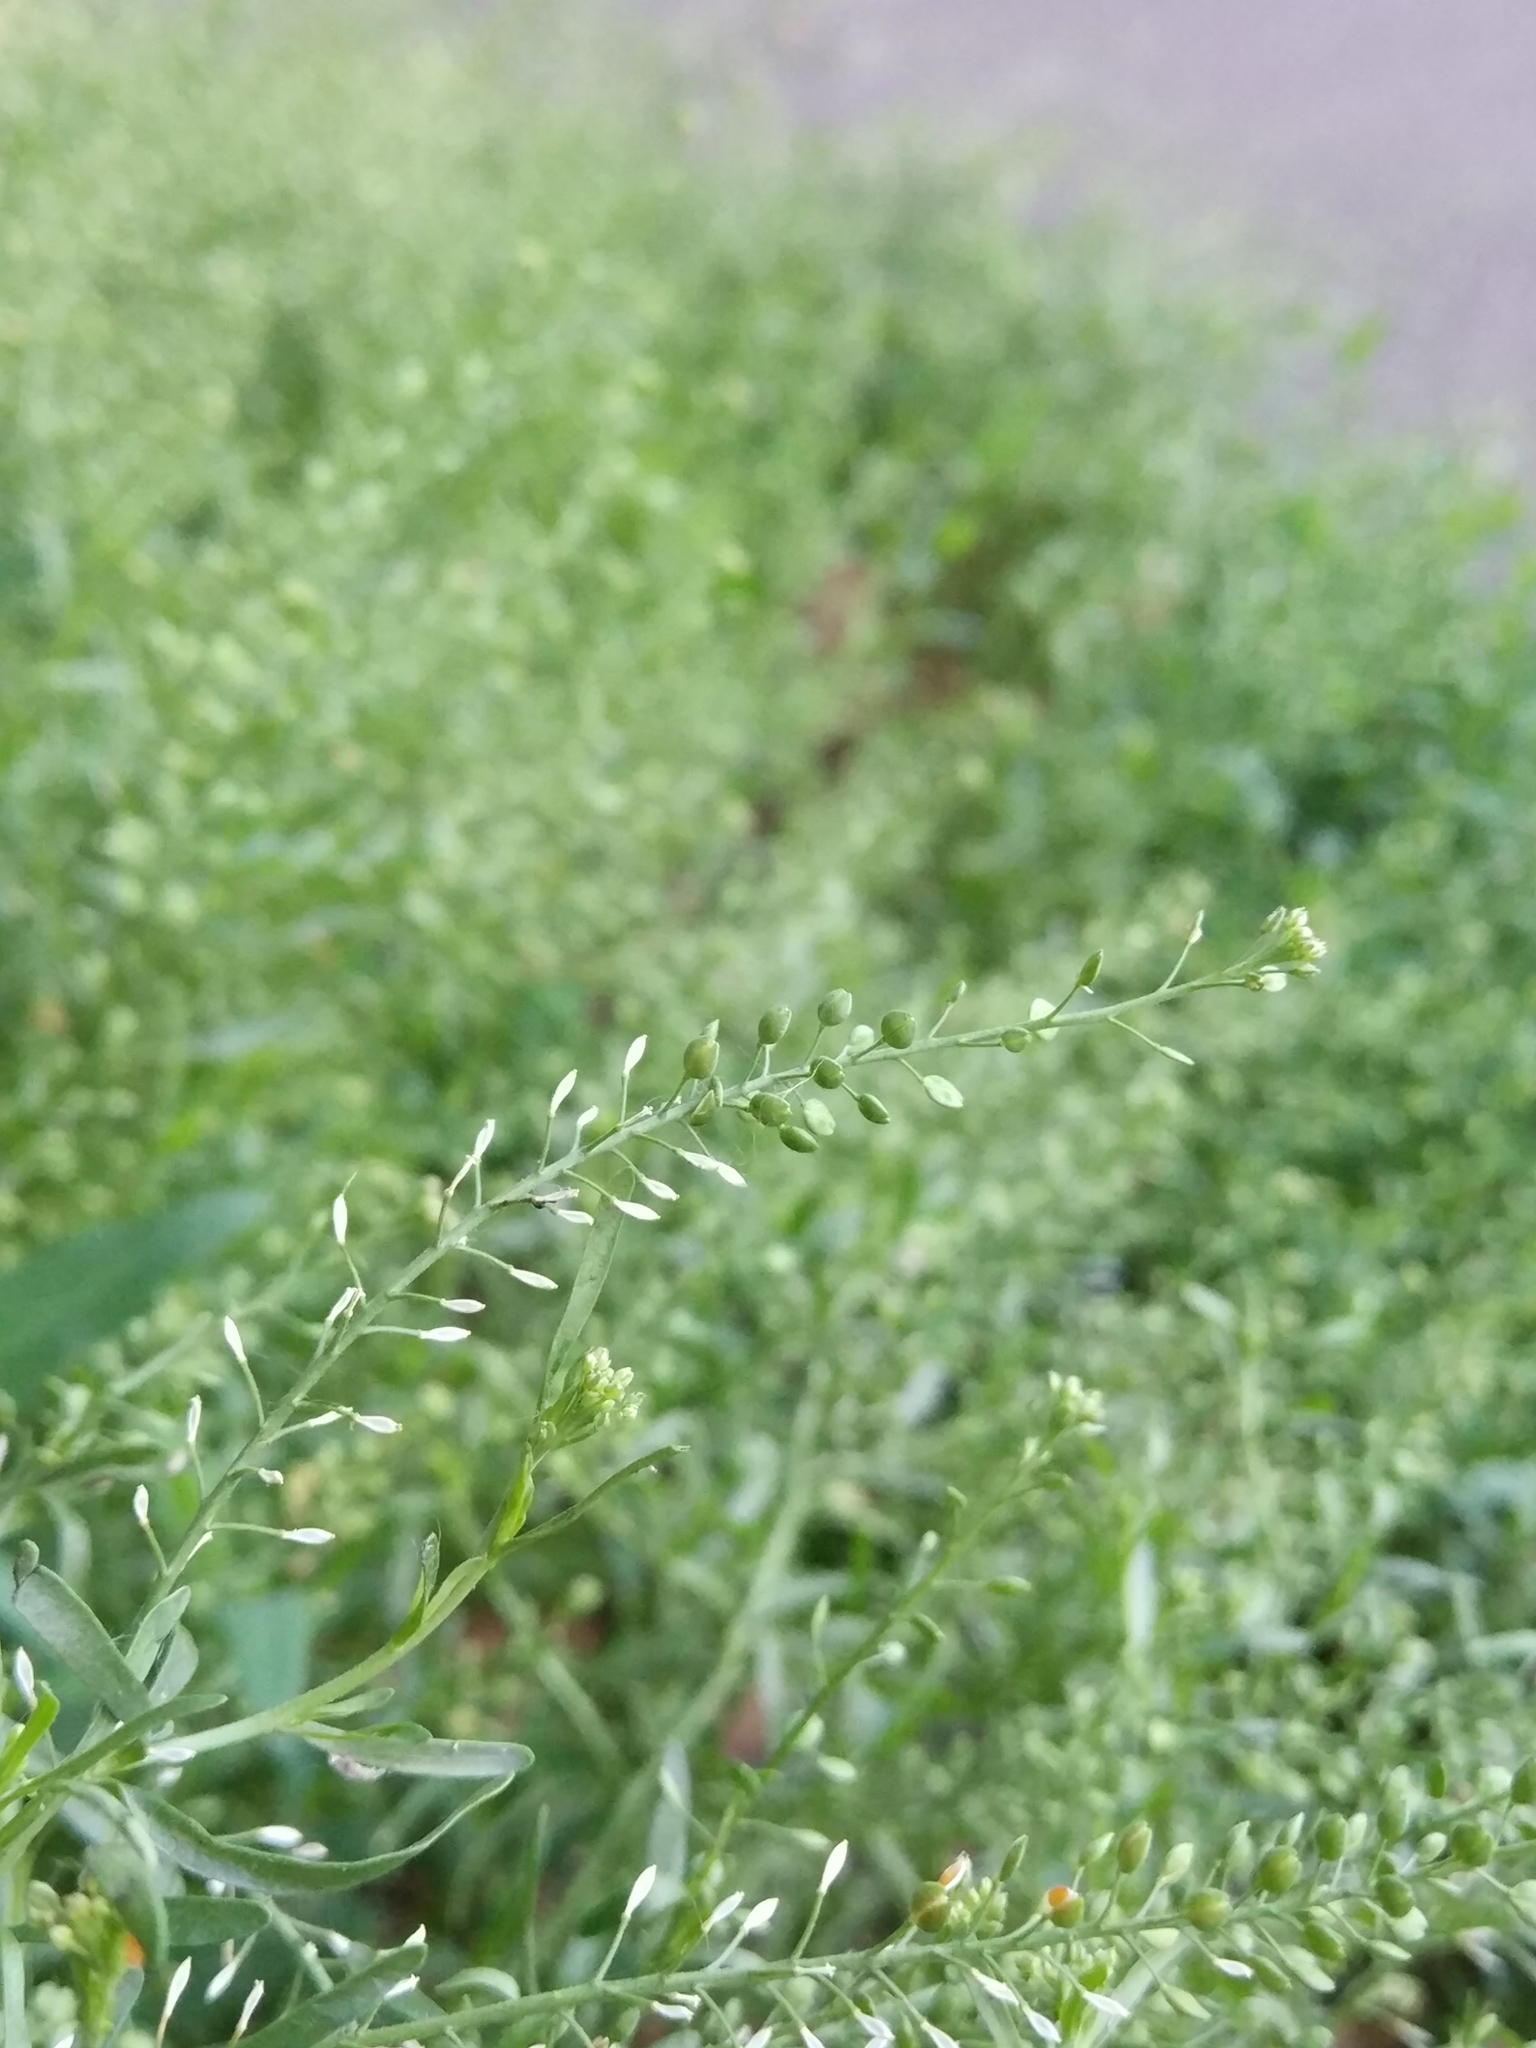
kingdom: Plantae
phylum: Tracheophyta
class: Magnoliopsida
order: Brassicales
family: Brassicaceae
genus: Lepidium
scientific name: Lepidium ruderale
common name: Narrow-leaved pepperwort
